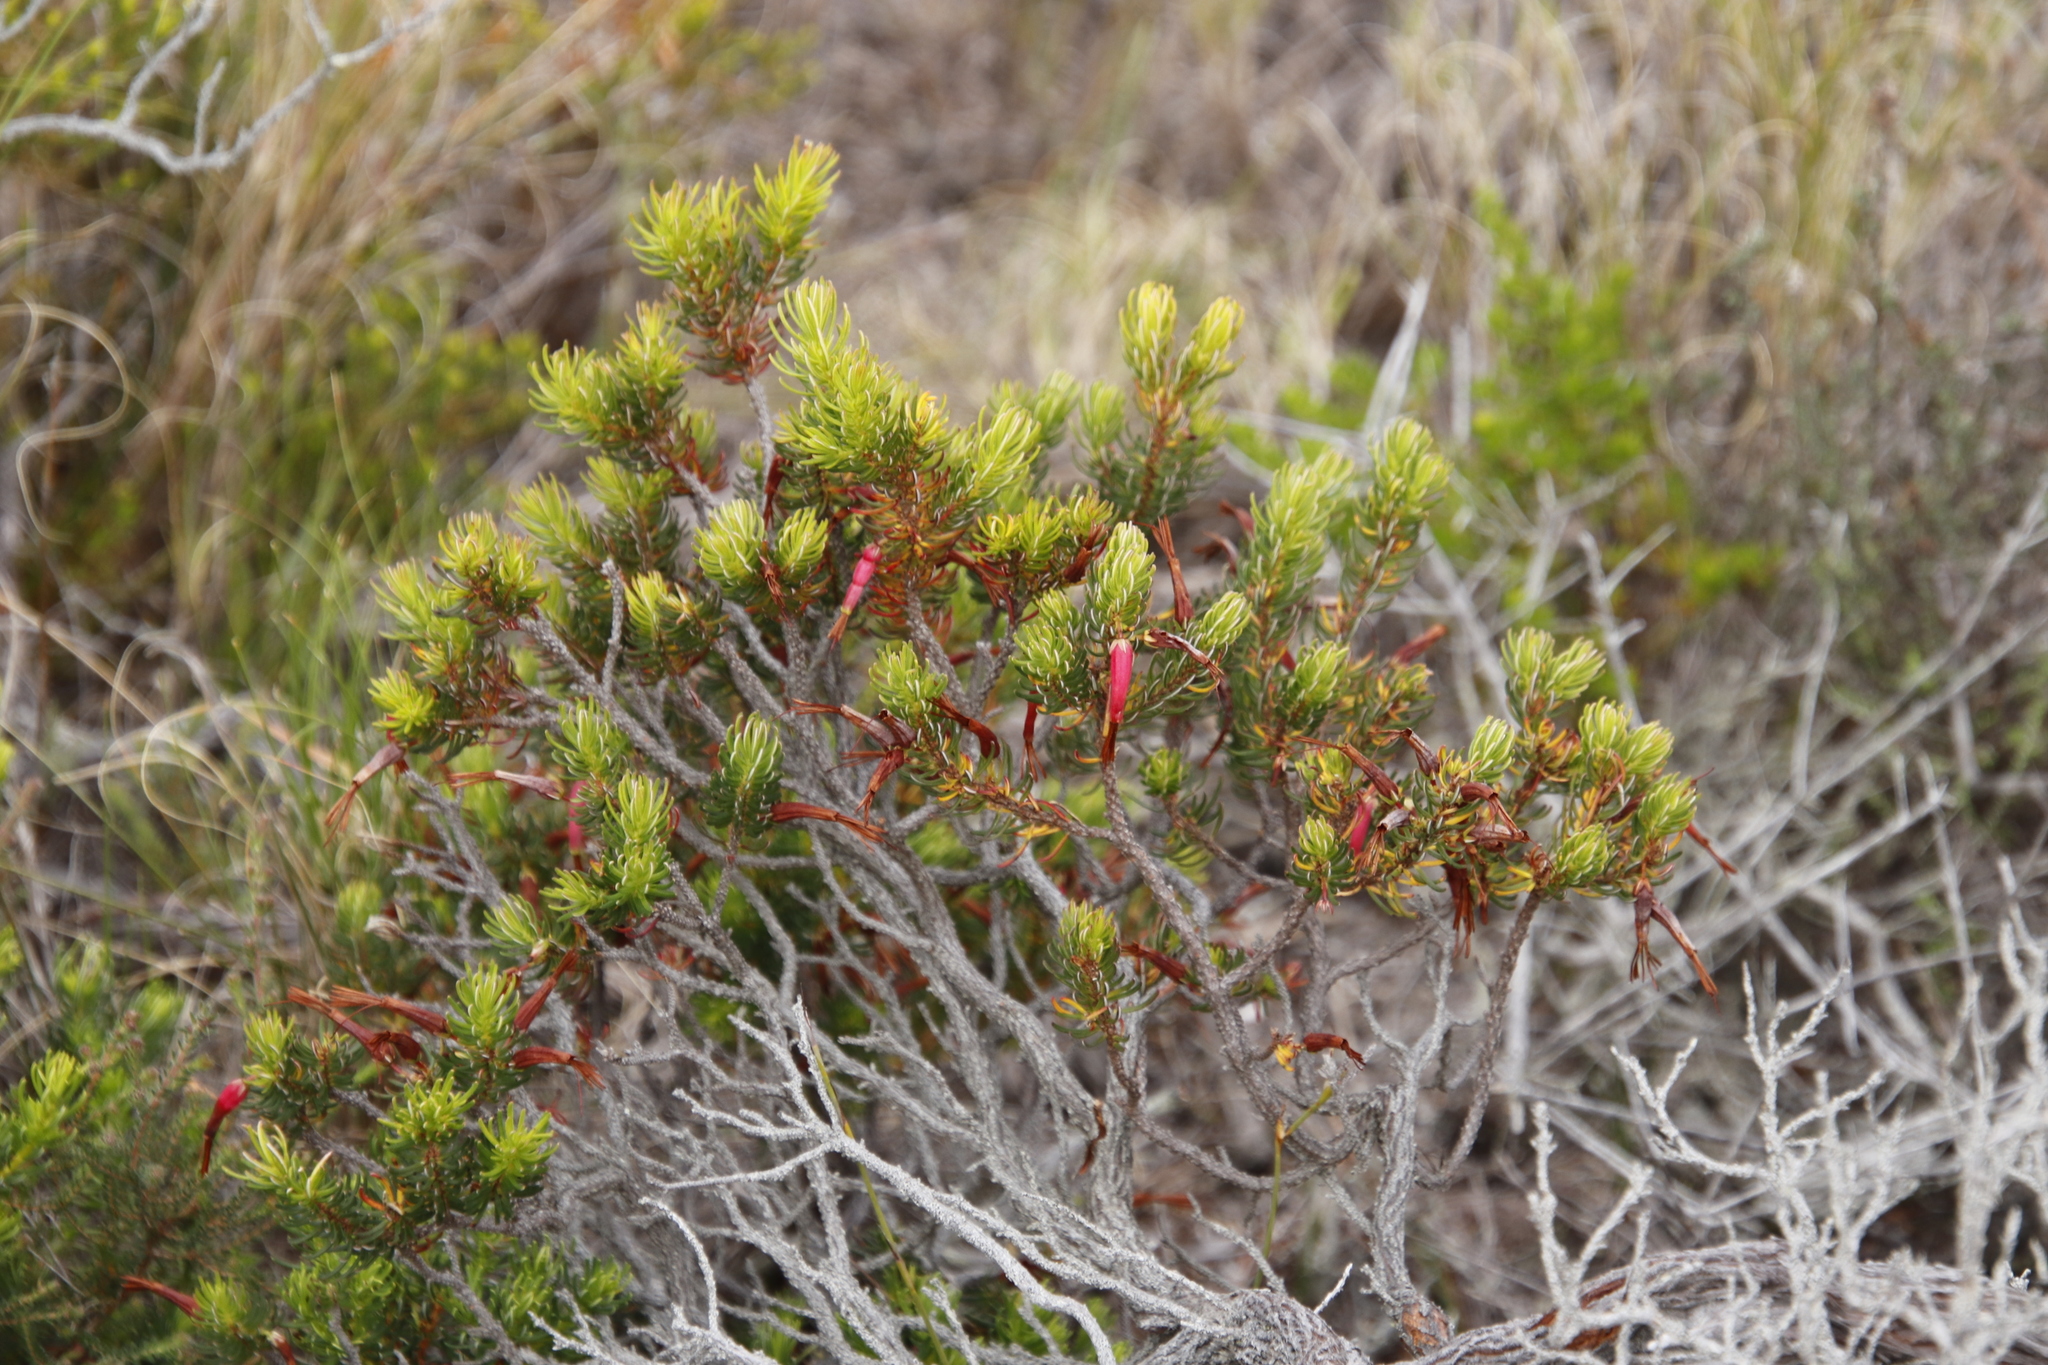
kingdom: Plantae
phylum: Tracheophyta
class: Magnoliopsida
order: Ericales
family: Ericaceae
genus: Erica
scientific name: Erica plukenetii
